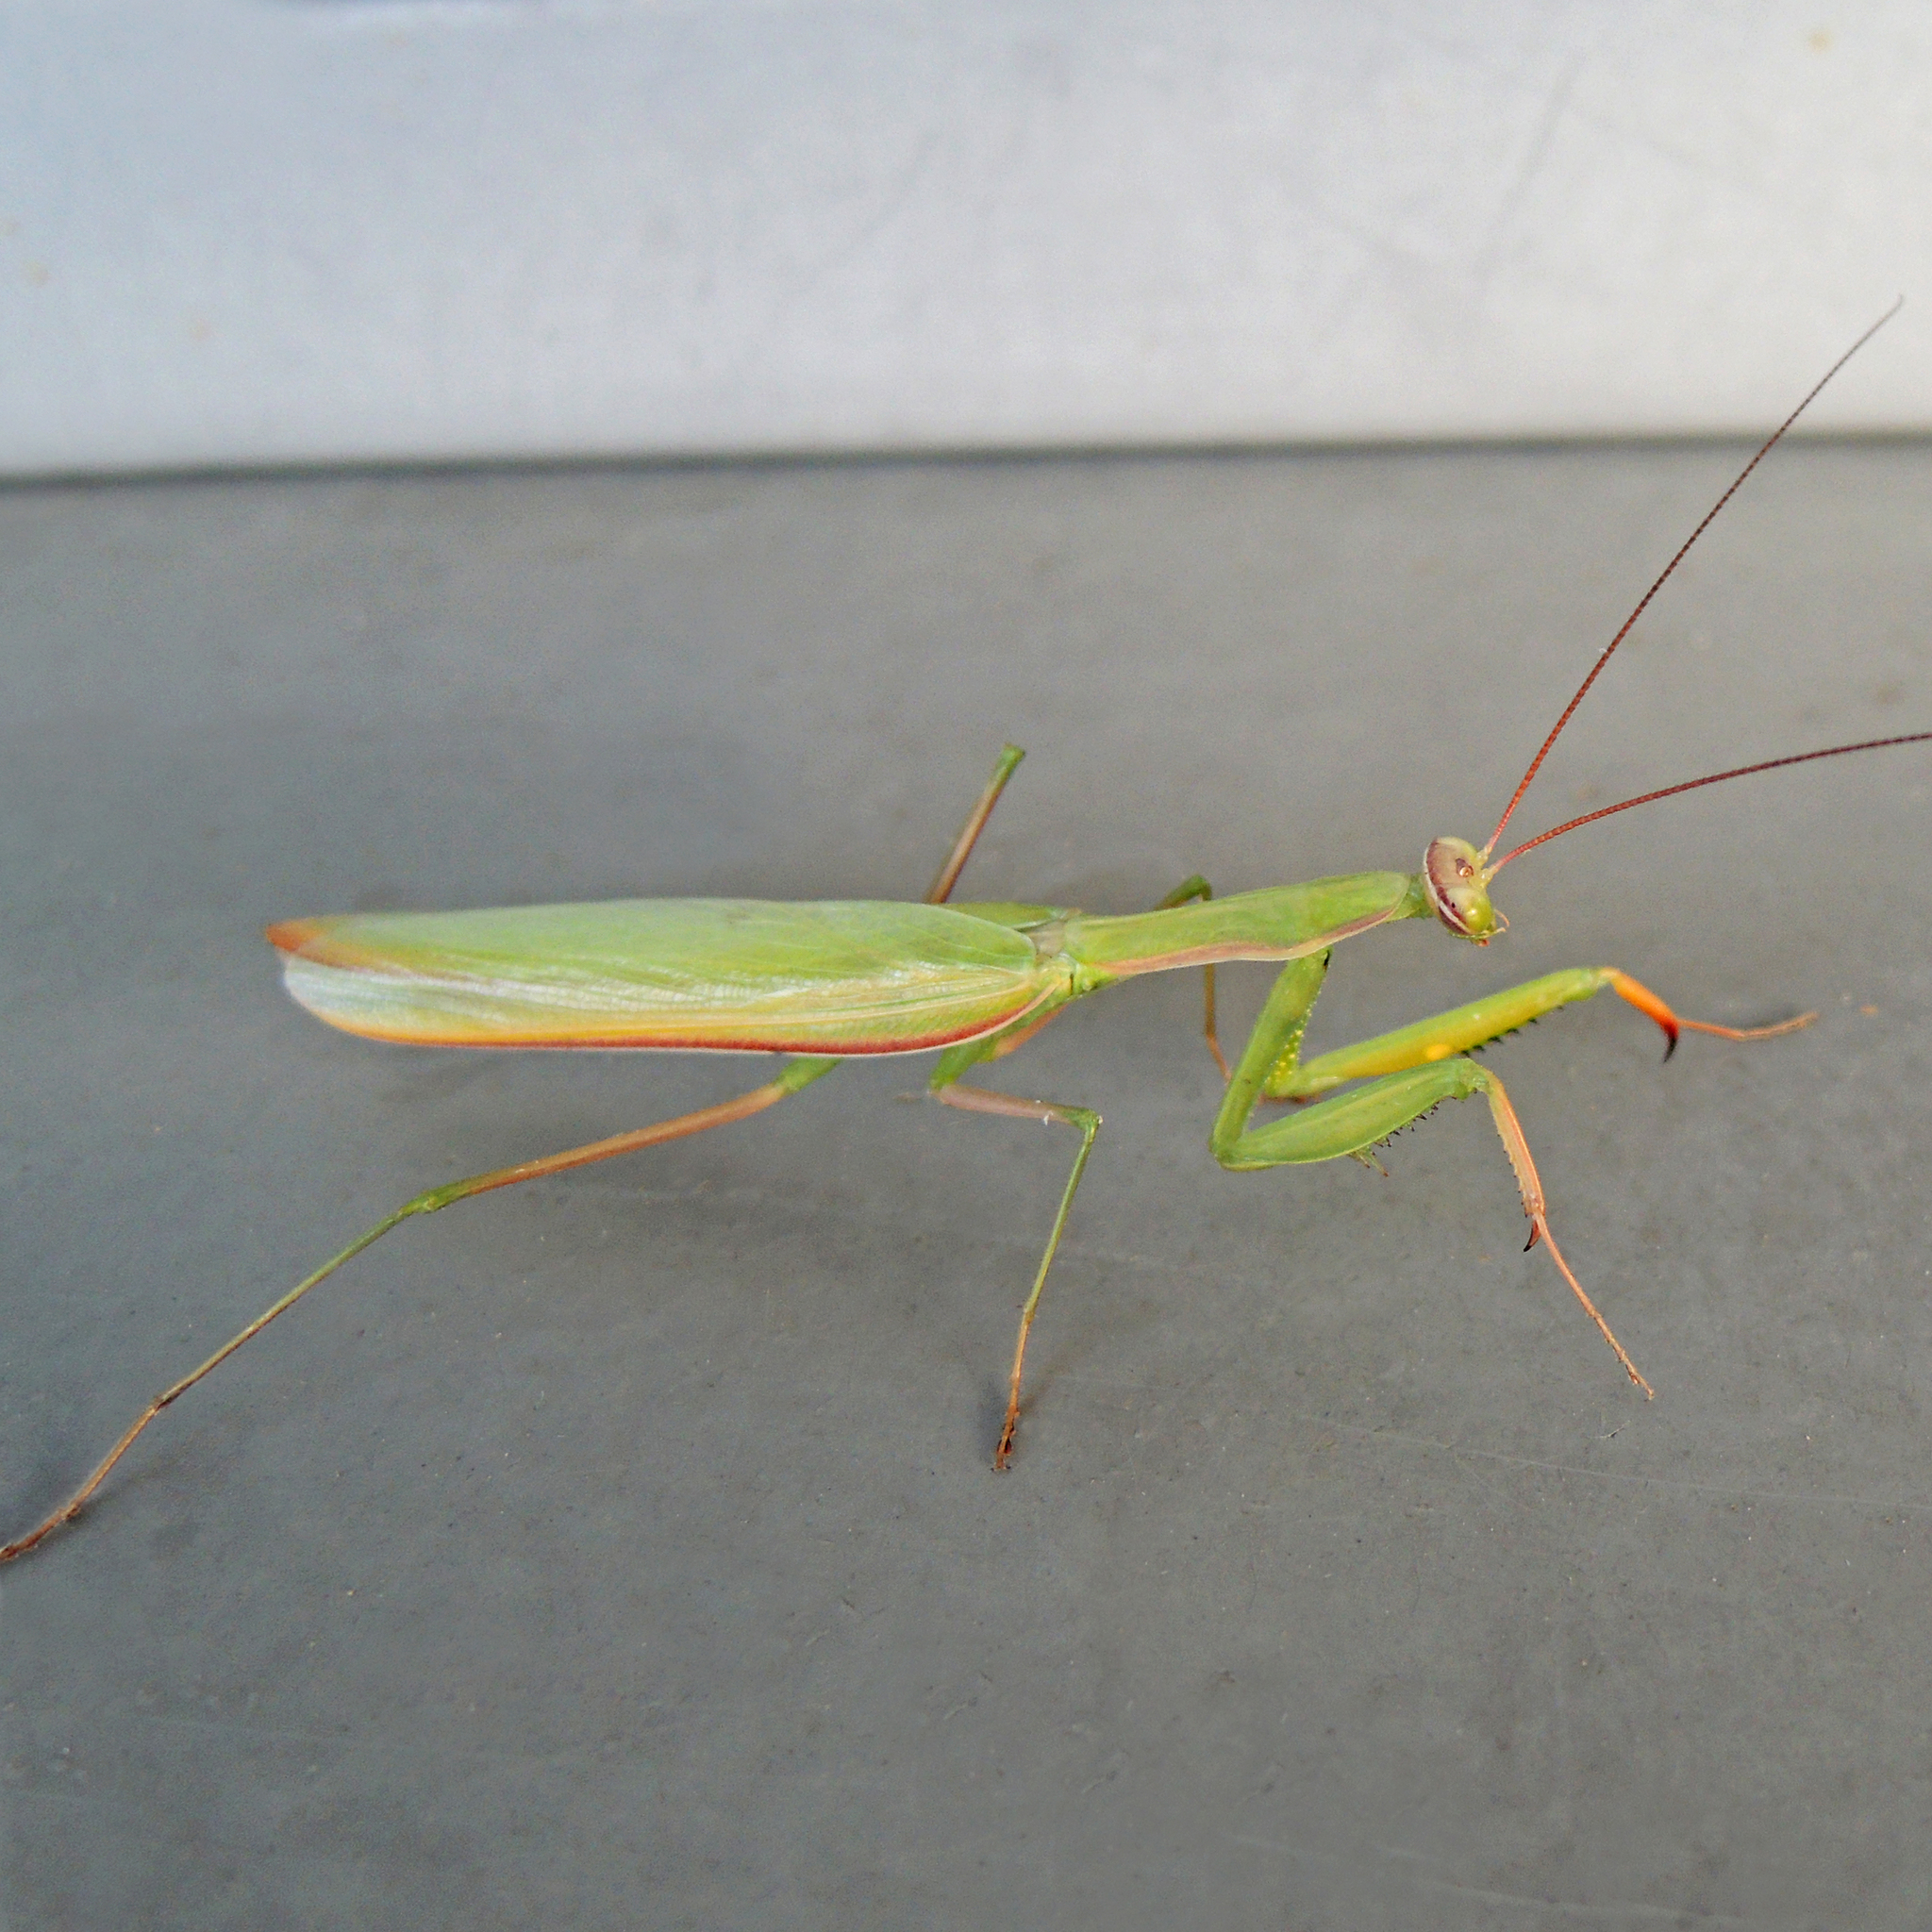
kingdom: Animalia
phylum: Arthropoda
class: Insecta
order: Mantodea
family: Mantidae
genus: Mantis
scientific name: Mantis religiosa
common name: Praying mantis
